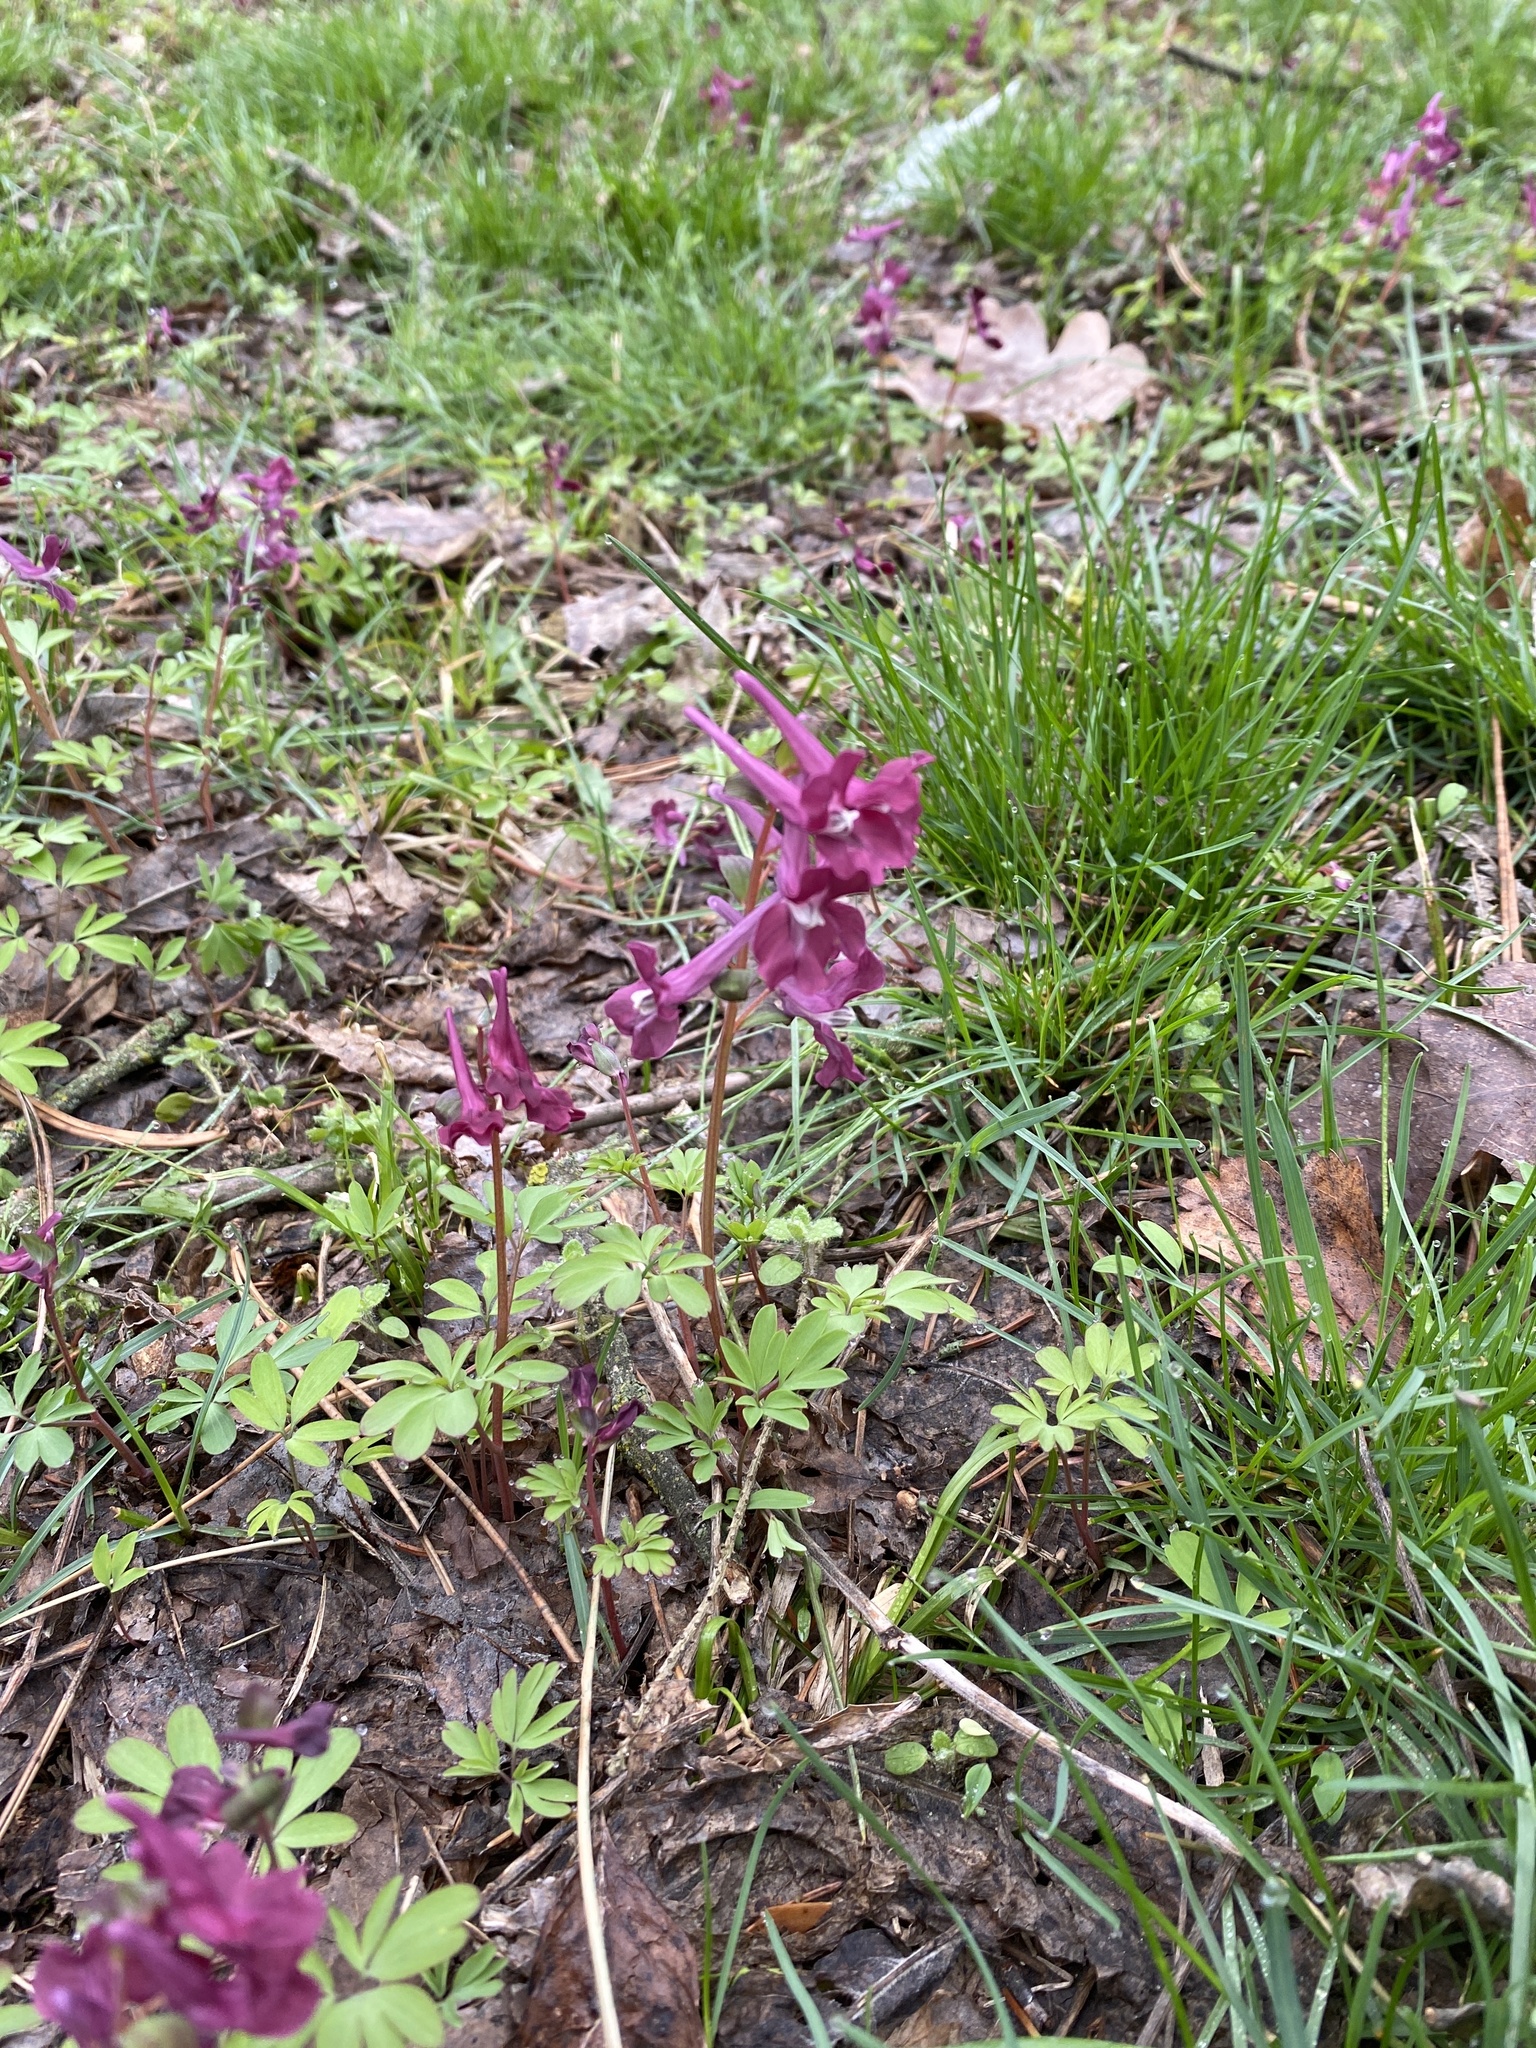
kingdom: Plantae
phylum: Tracheophyta
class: Magnoliopsida
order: Ranunculales
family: Papaveraceae
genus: Corydalis
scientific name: Corydalis caucasica
